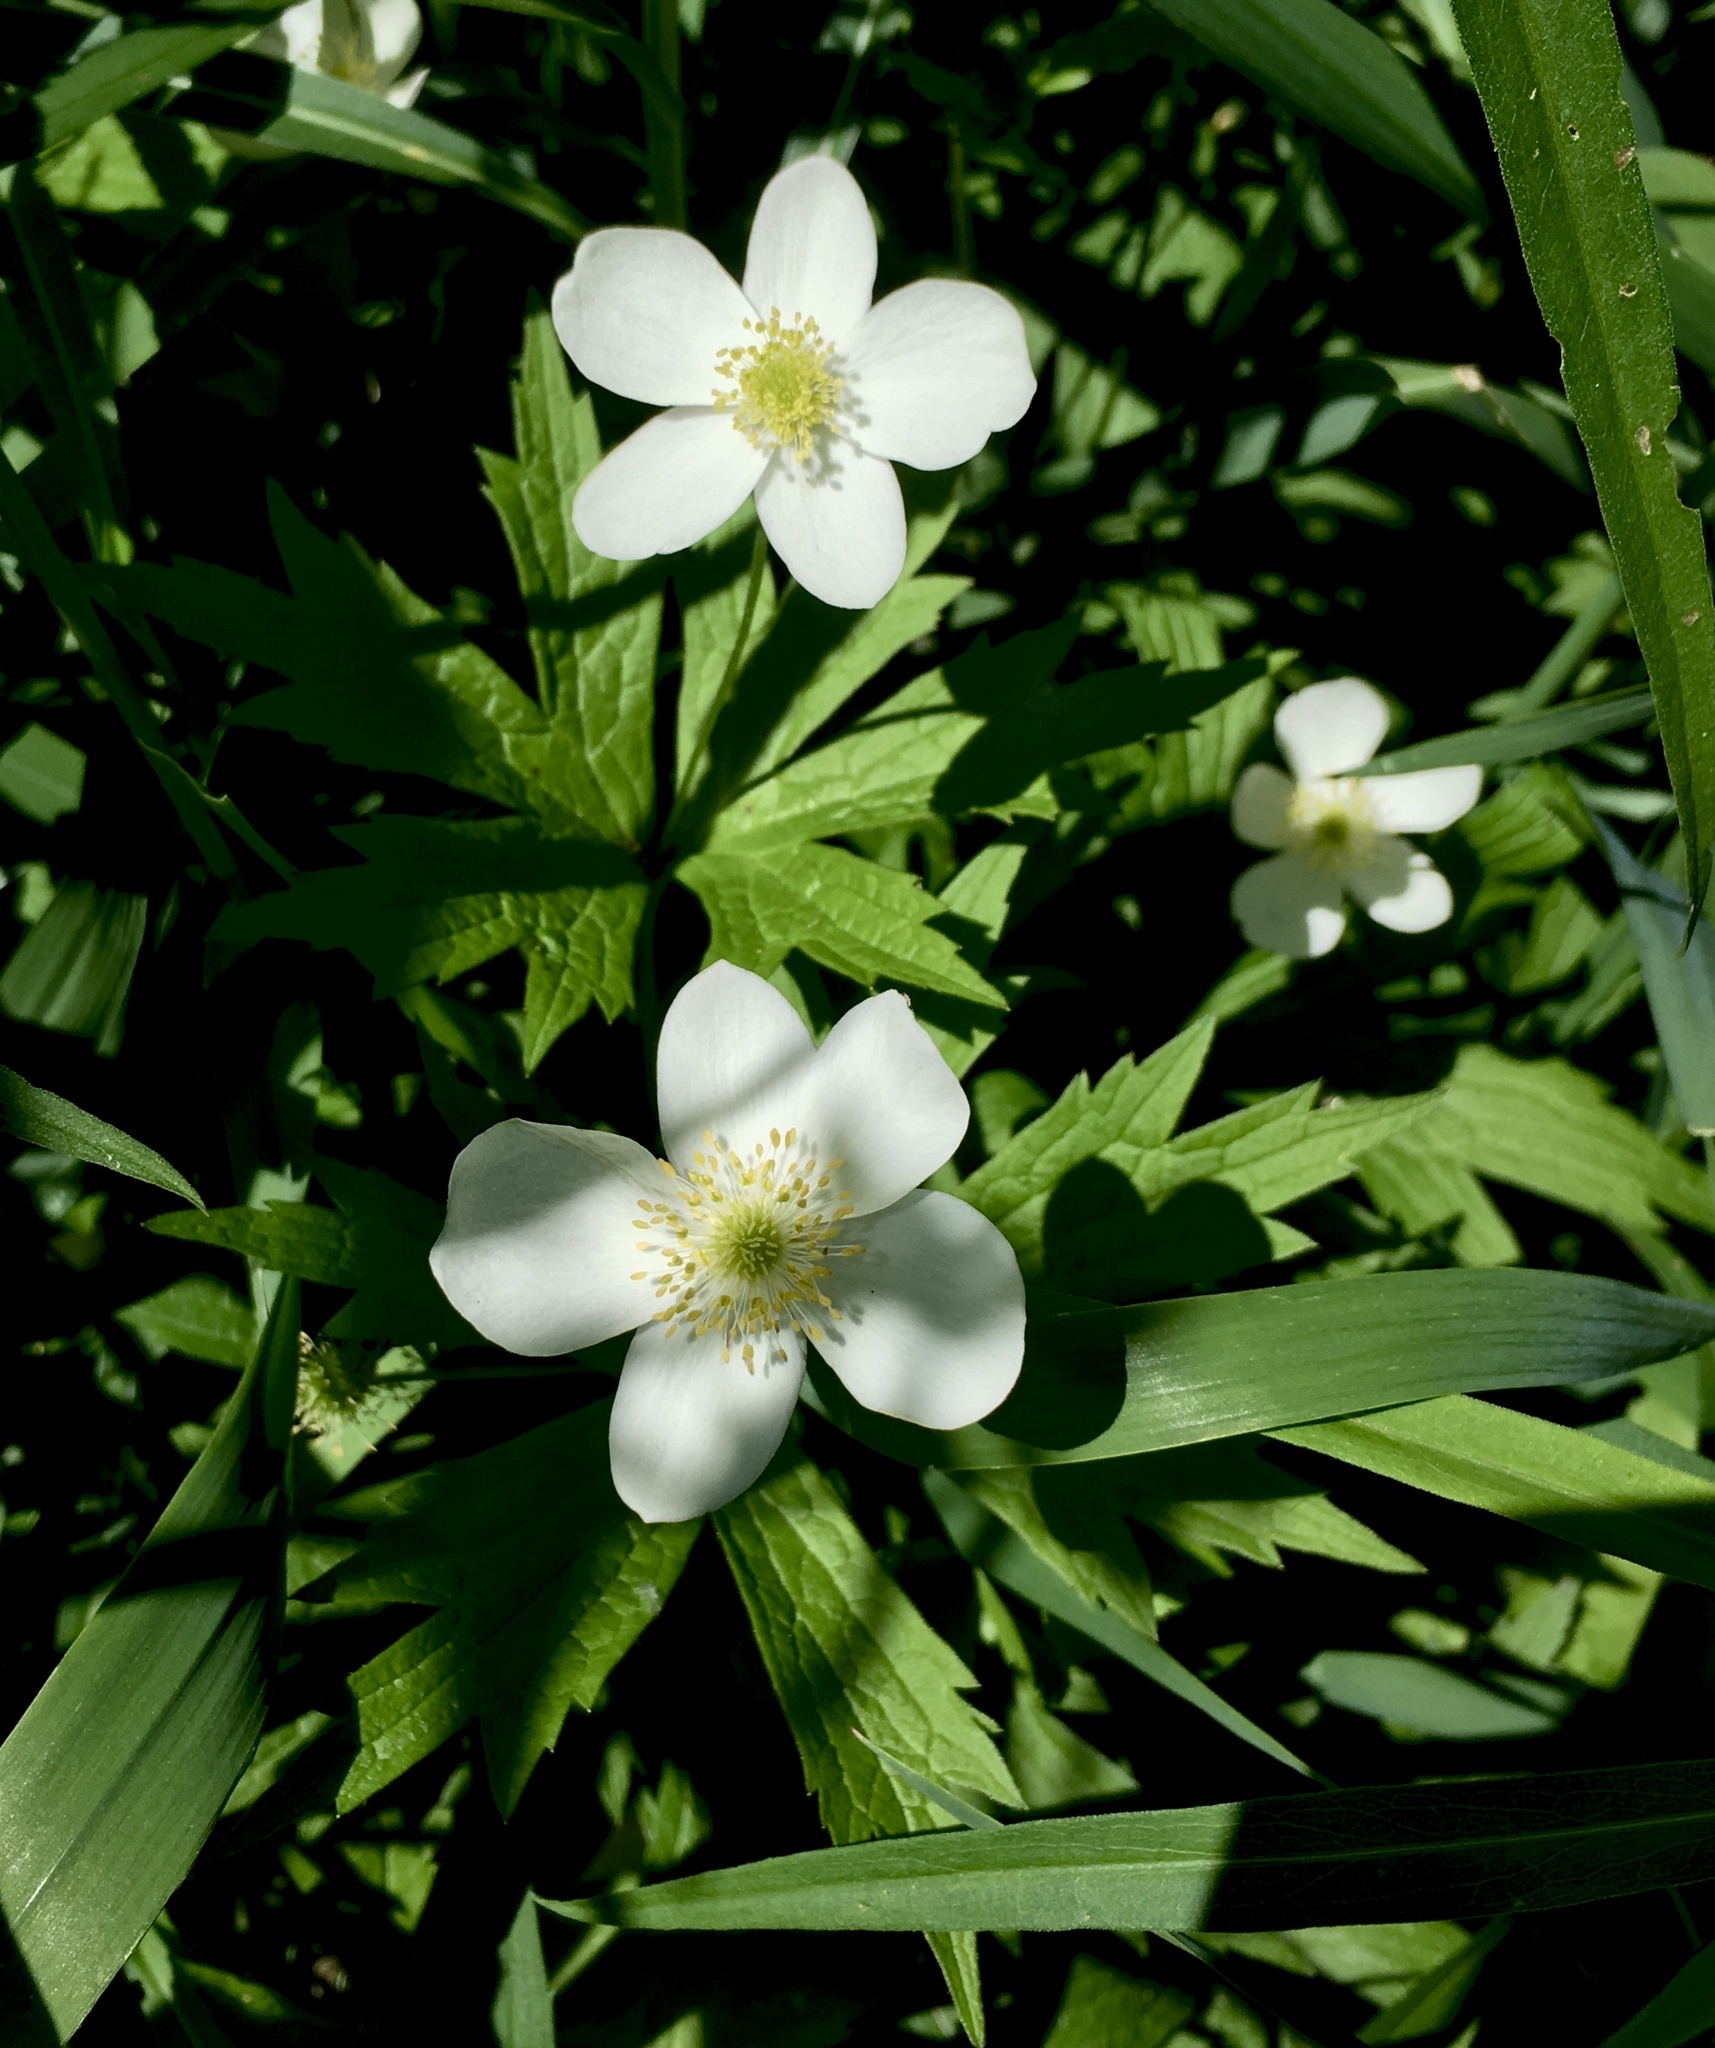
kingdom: Plantae
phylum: Tracheophyta
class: Magnoliopsida
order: Ranunculales
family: Ranunculaceae
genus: Anemonastrum
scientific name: Anemonastrum canadense
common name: Canada anemone
